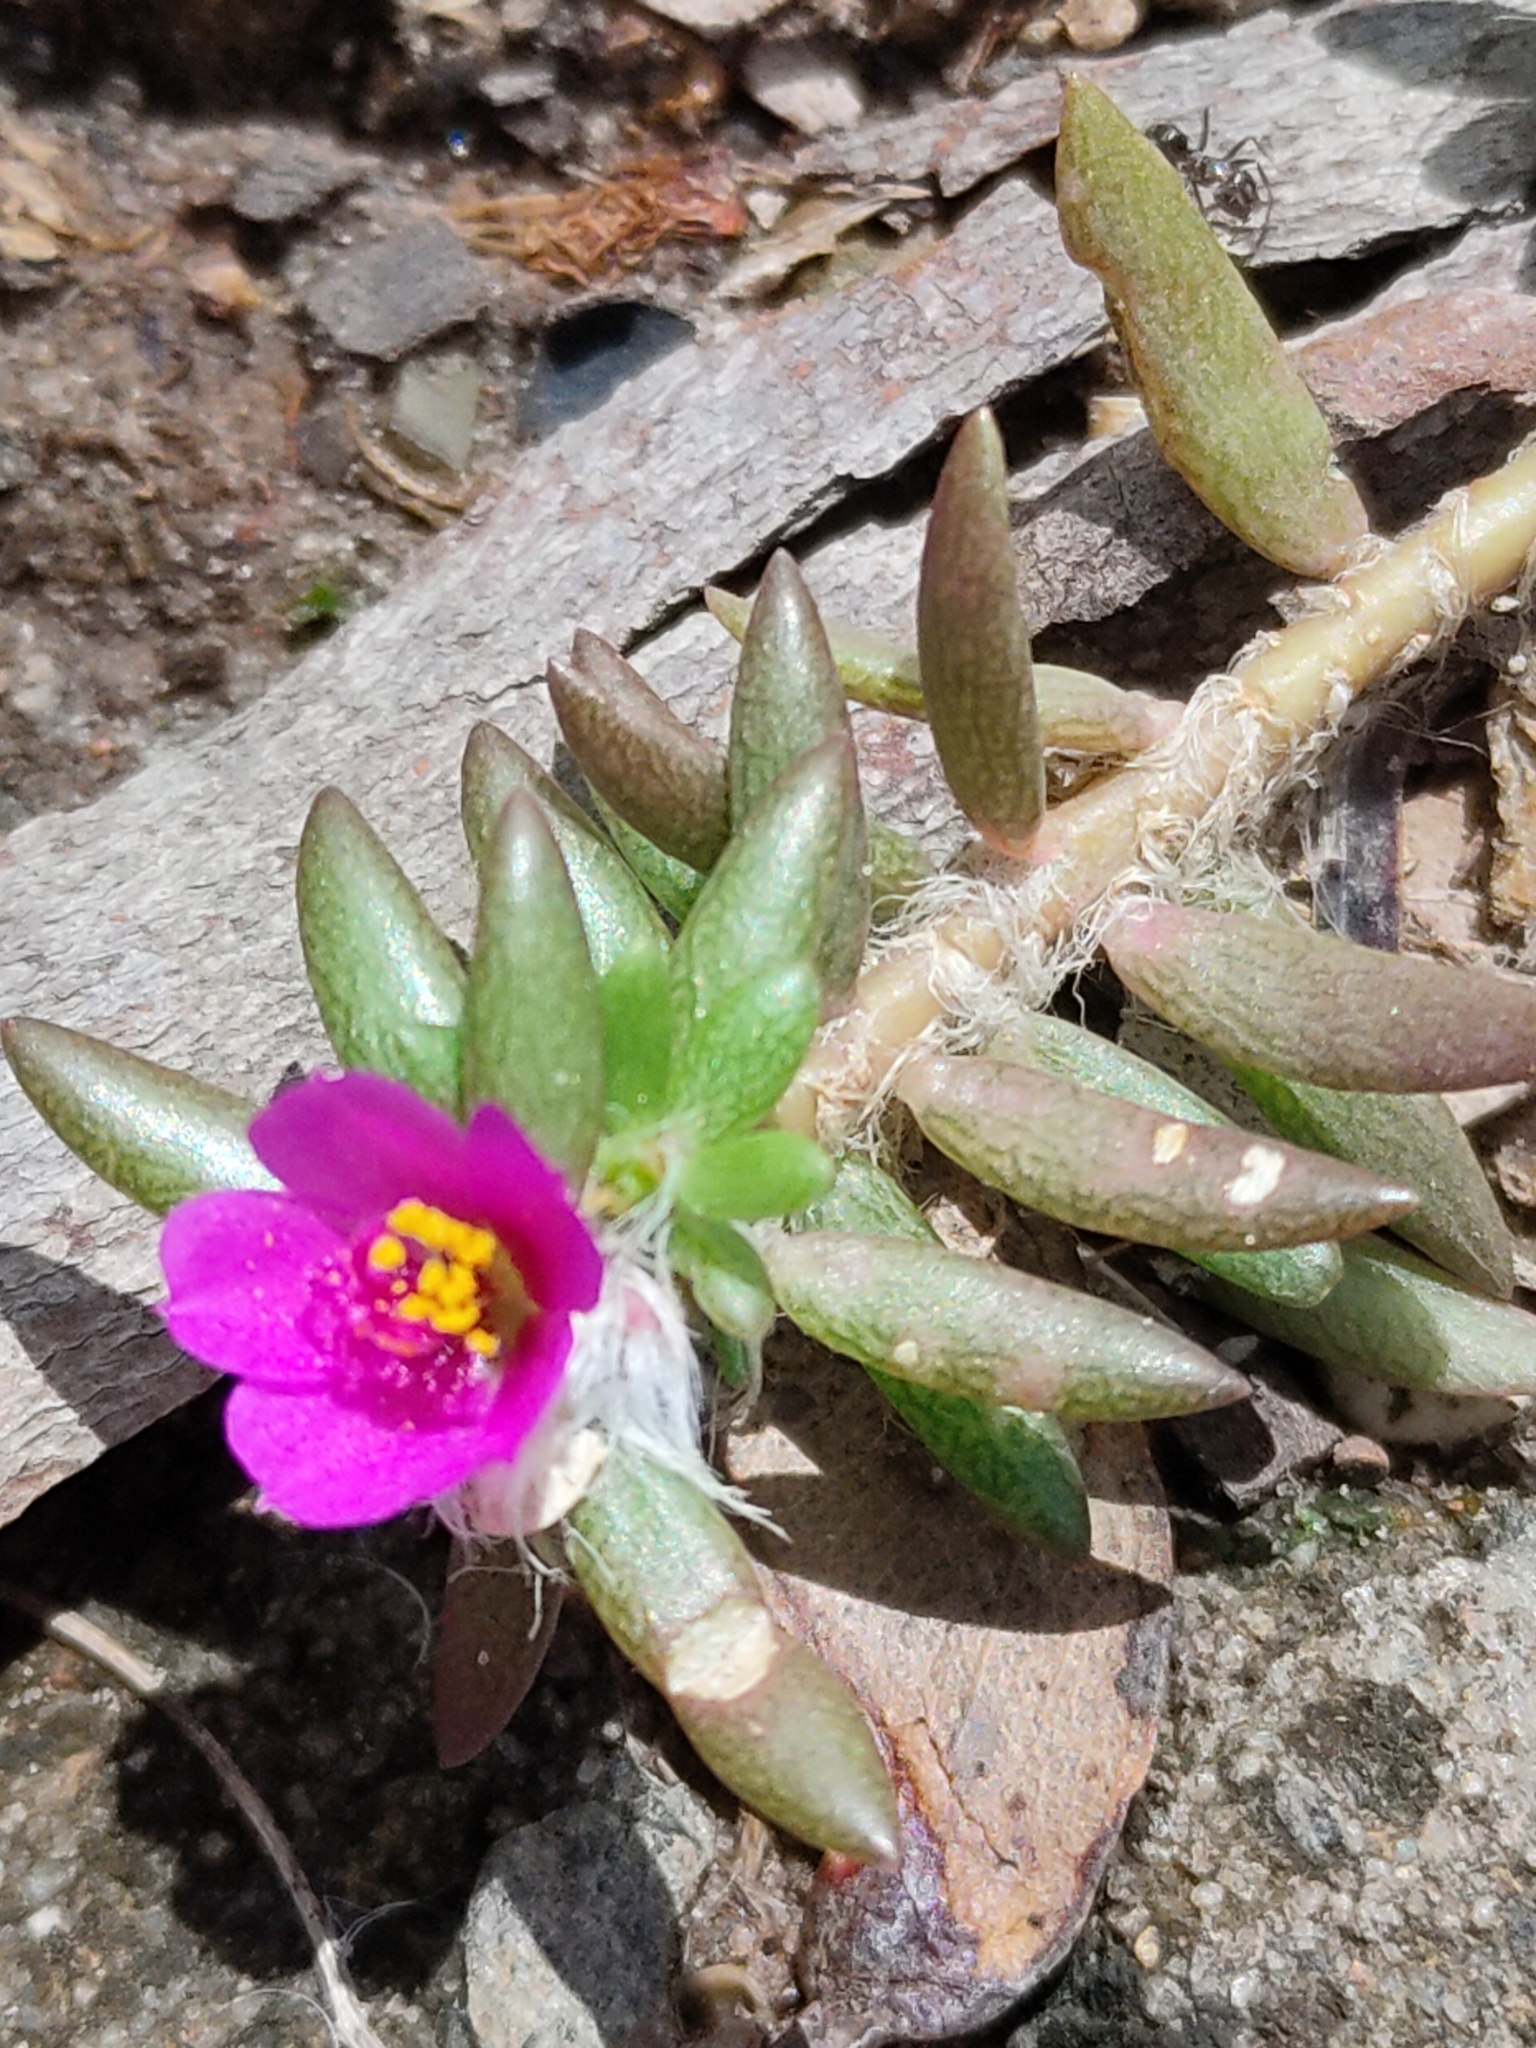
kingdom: Plantae
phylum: Tracheophyta
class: Magnoliopsida
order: Caryophyllales
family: Portulacaceae
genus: Portulaca
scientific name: Portulaca pilosa
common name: Kiss me quick
